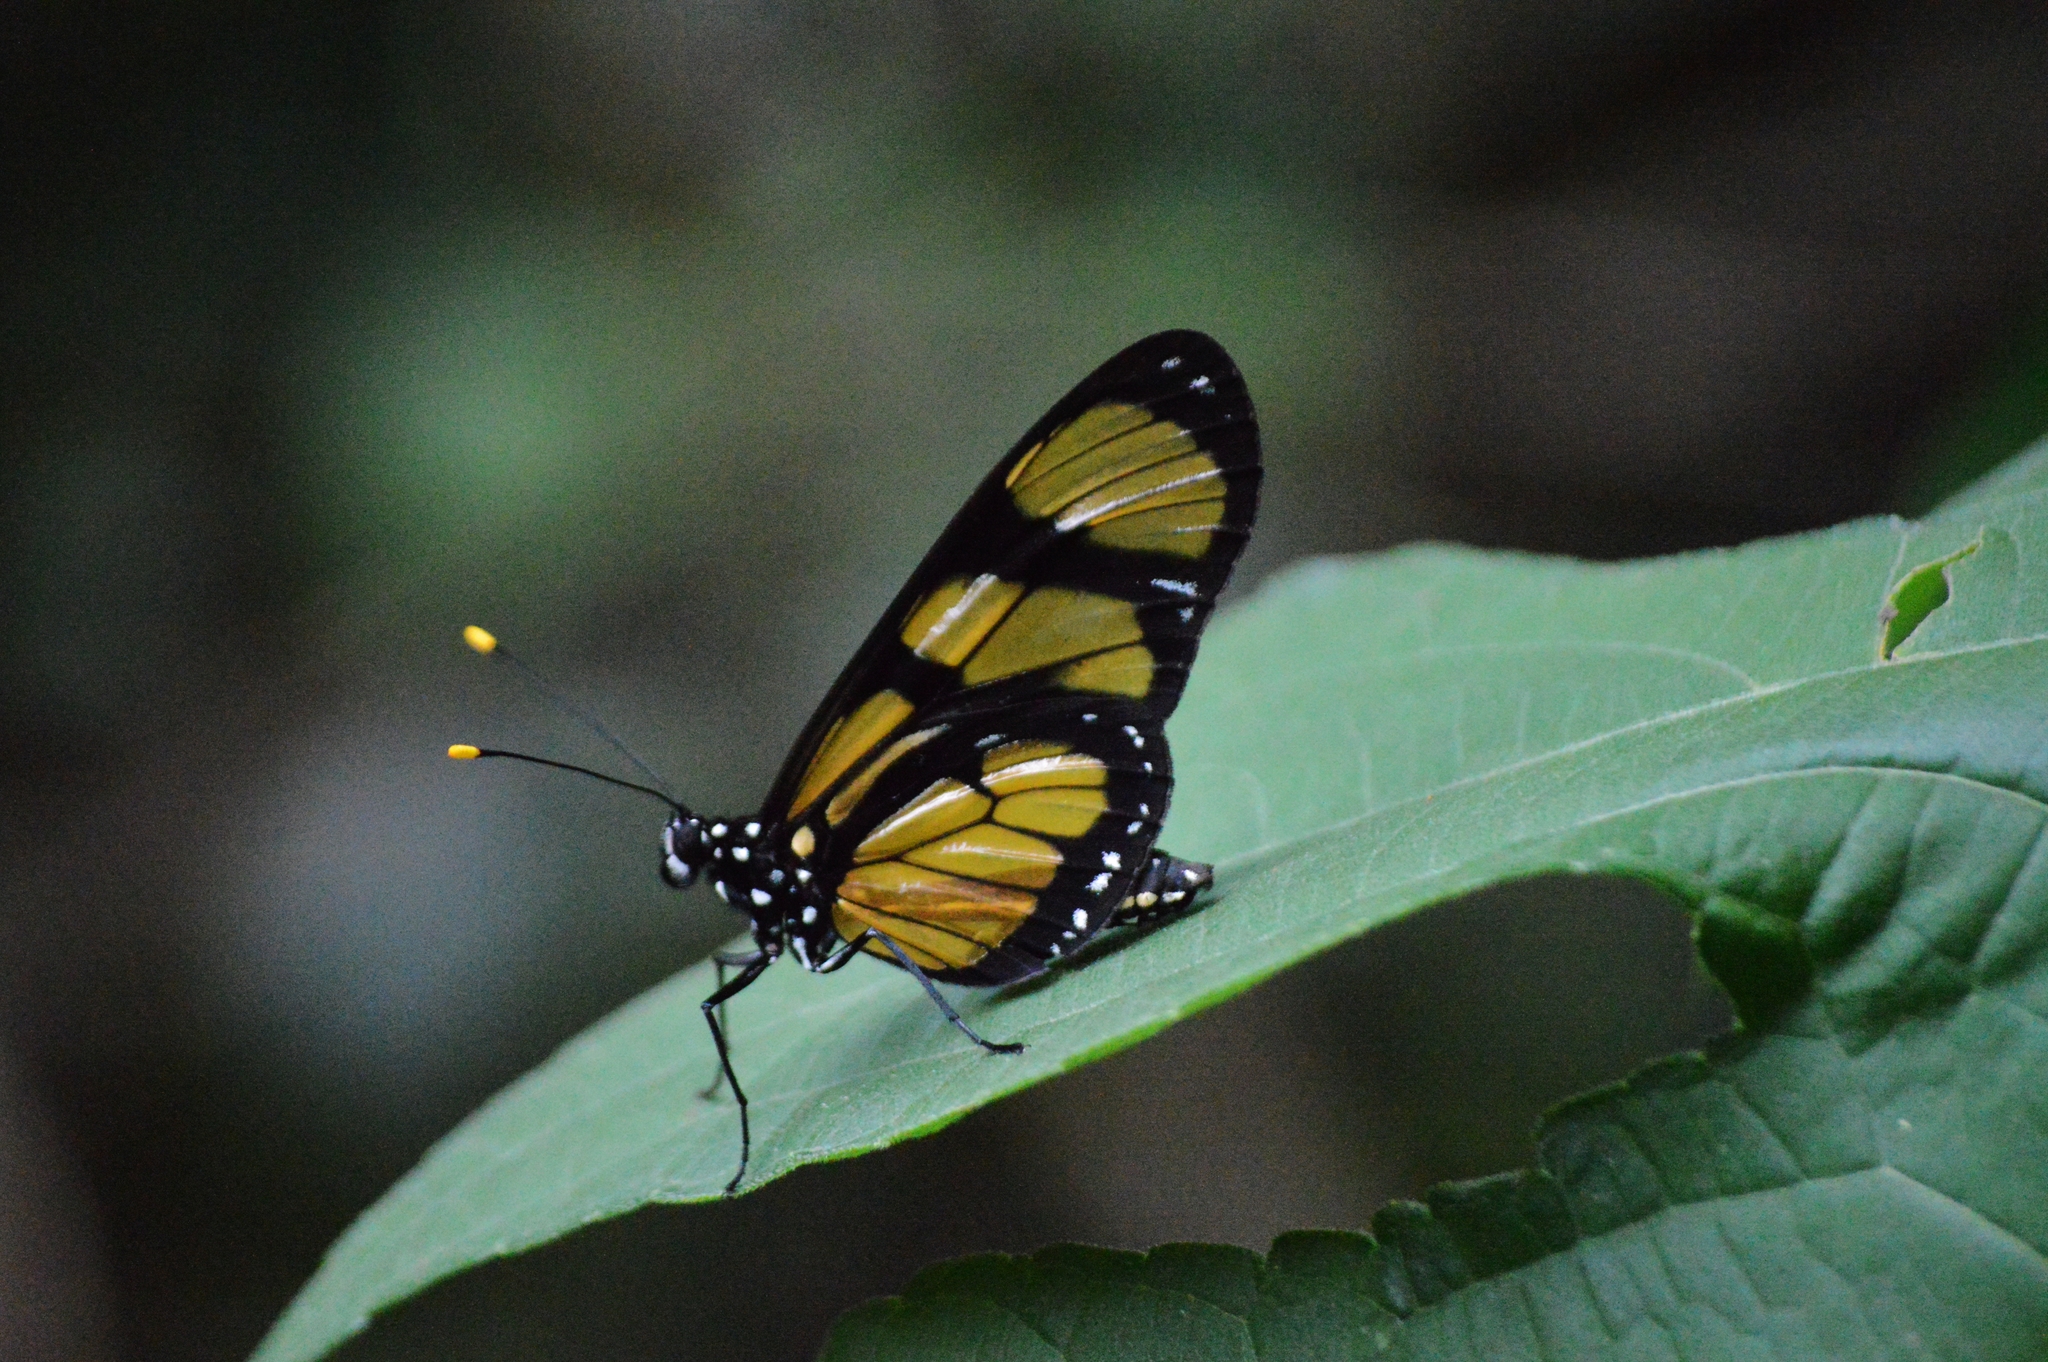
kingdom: Animalia
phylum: Arthropoda
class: Insecta
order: Lepidoptera
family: Nymphalidae
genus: Methona
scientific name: Methona themisto
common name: Themisto amberwing
